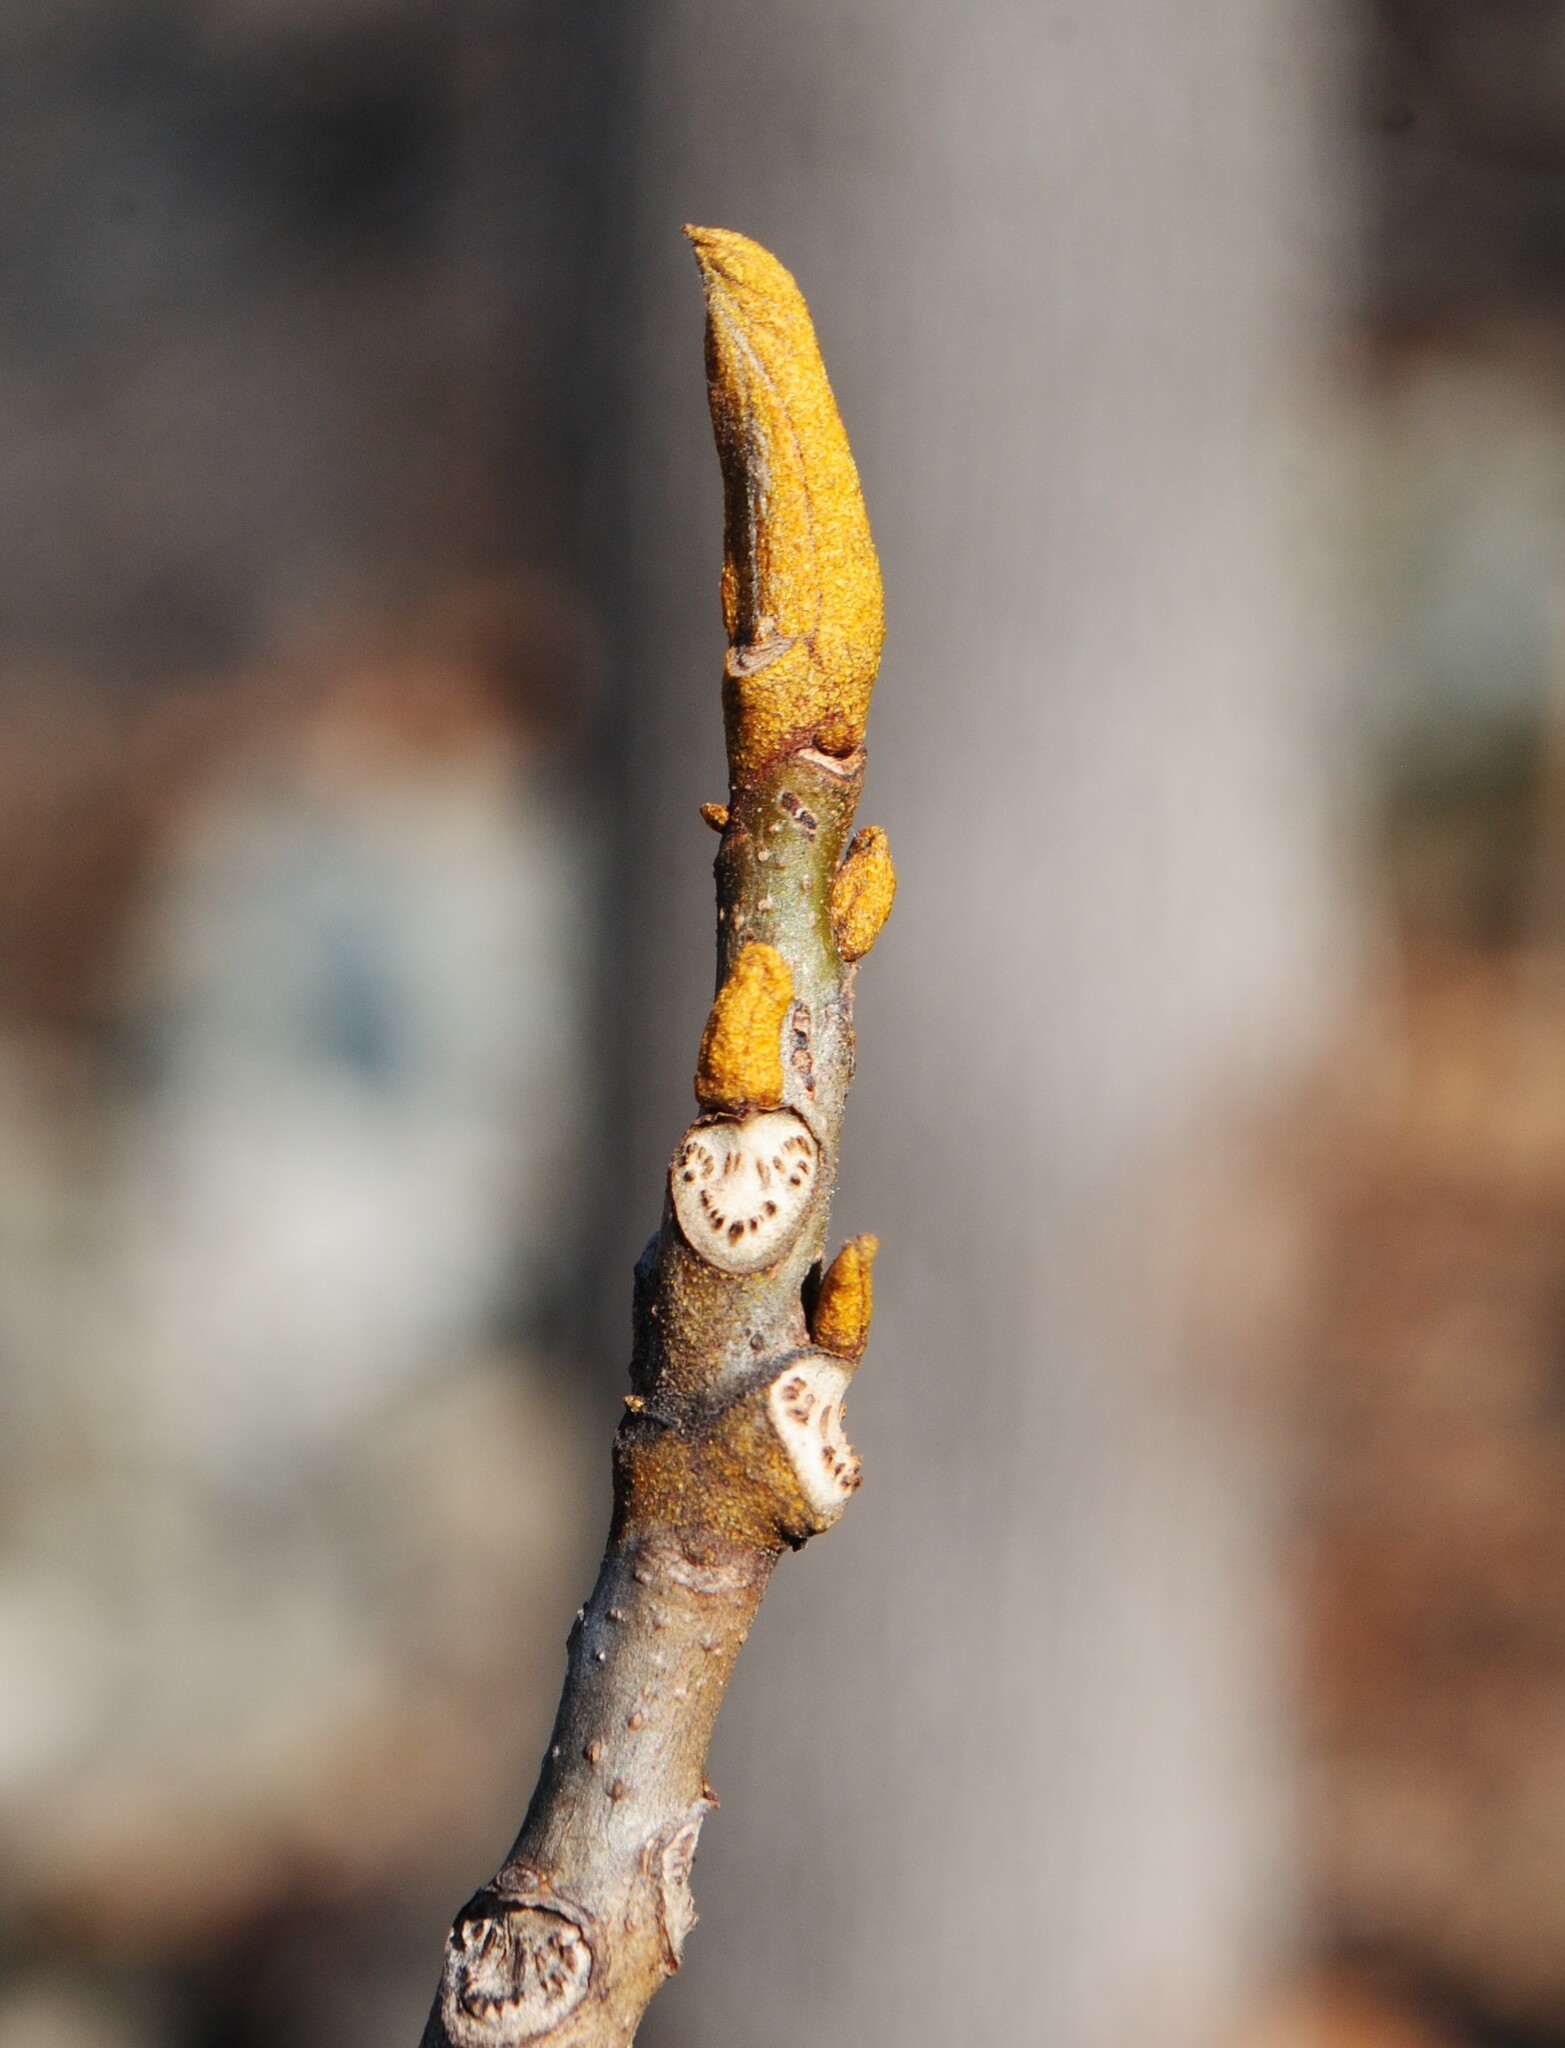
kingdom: Plantae
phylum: Tracheophyta
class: Magnoliopsida
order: Fagales
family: Juglandaceae
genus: Carya
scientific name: Carya cordiformis
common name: Bitternut hickory
